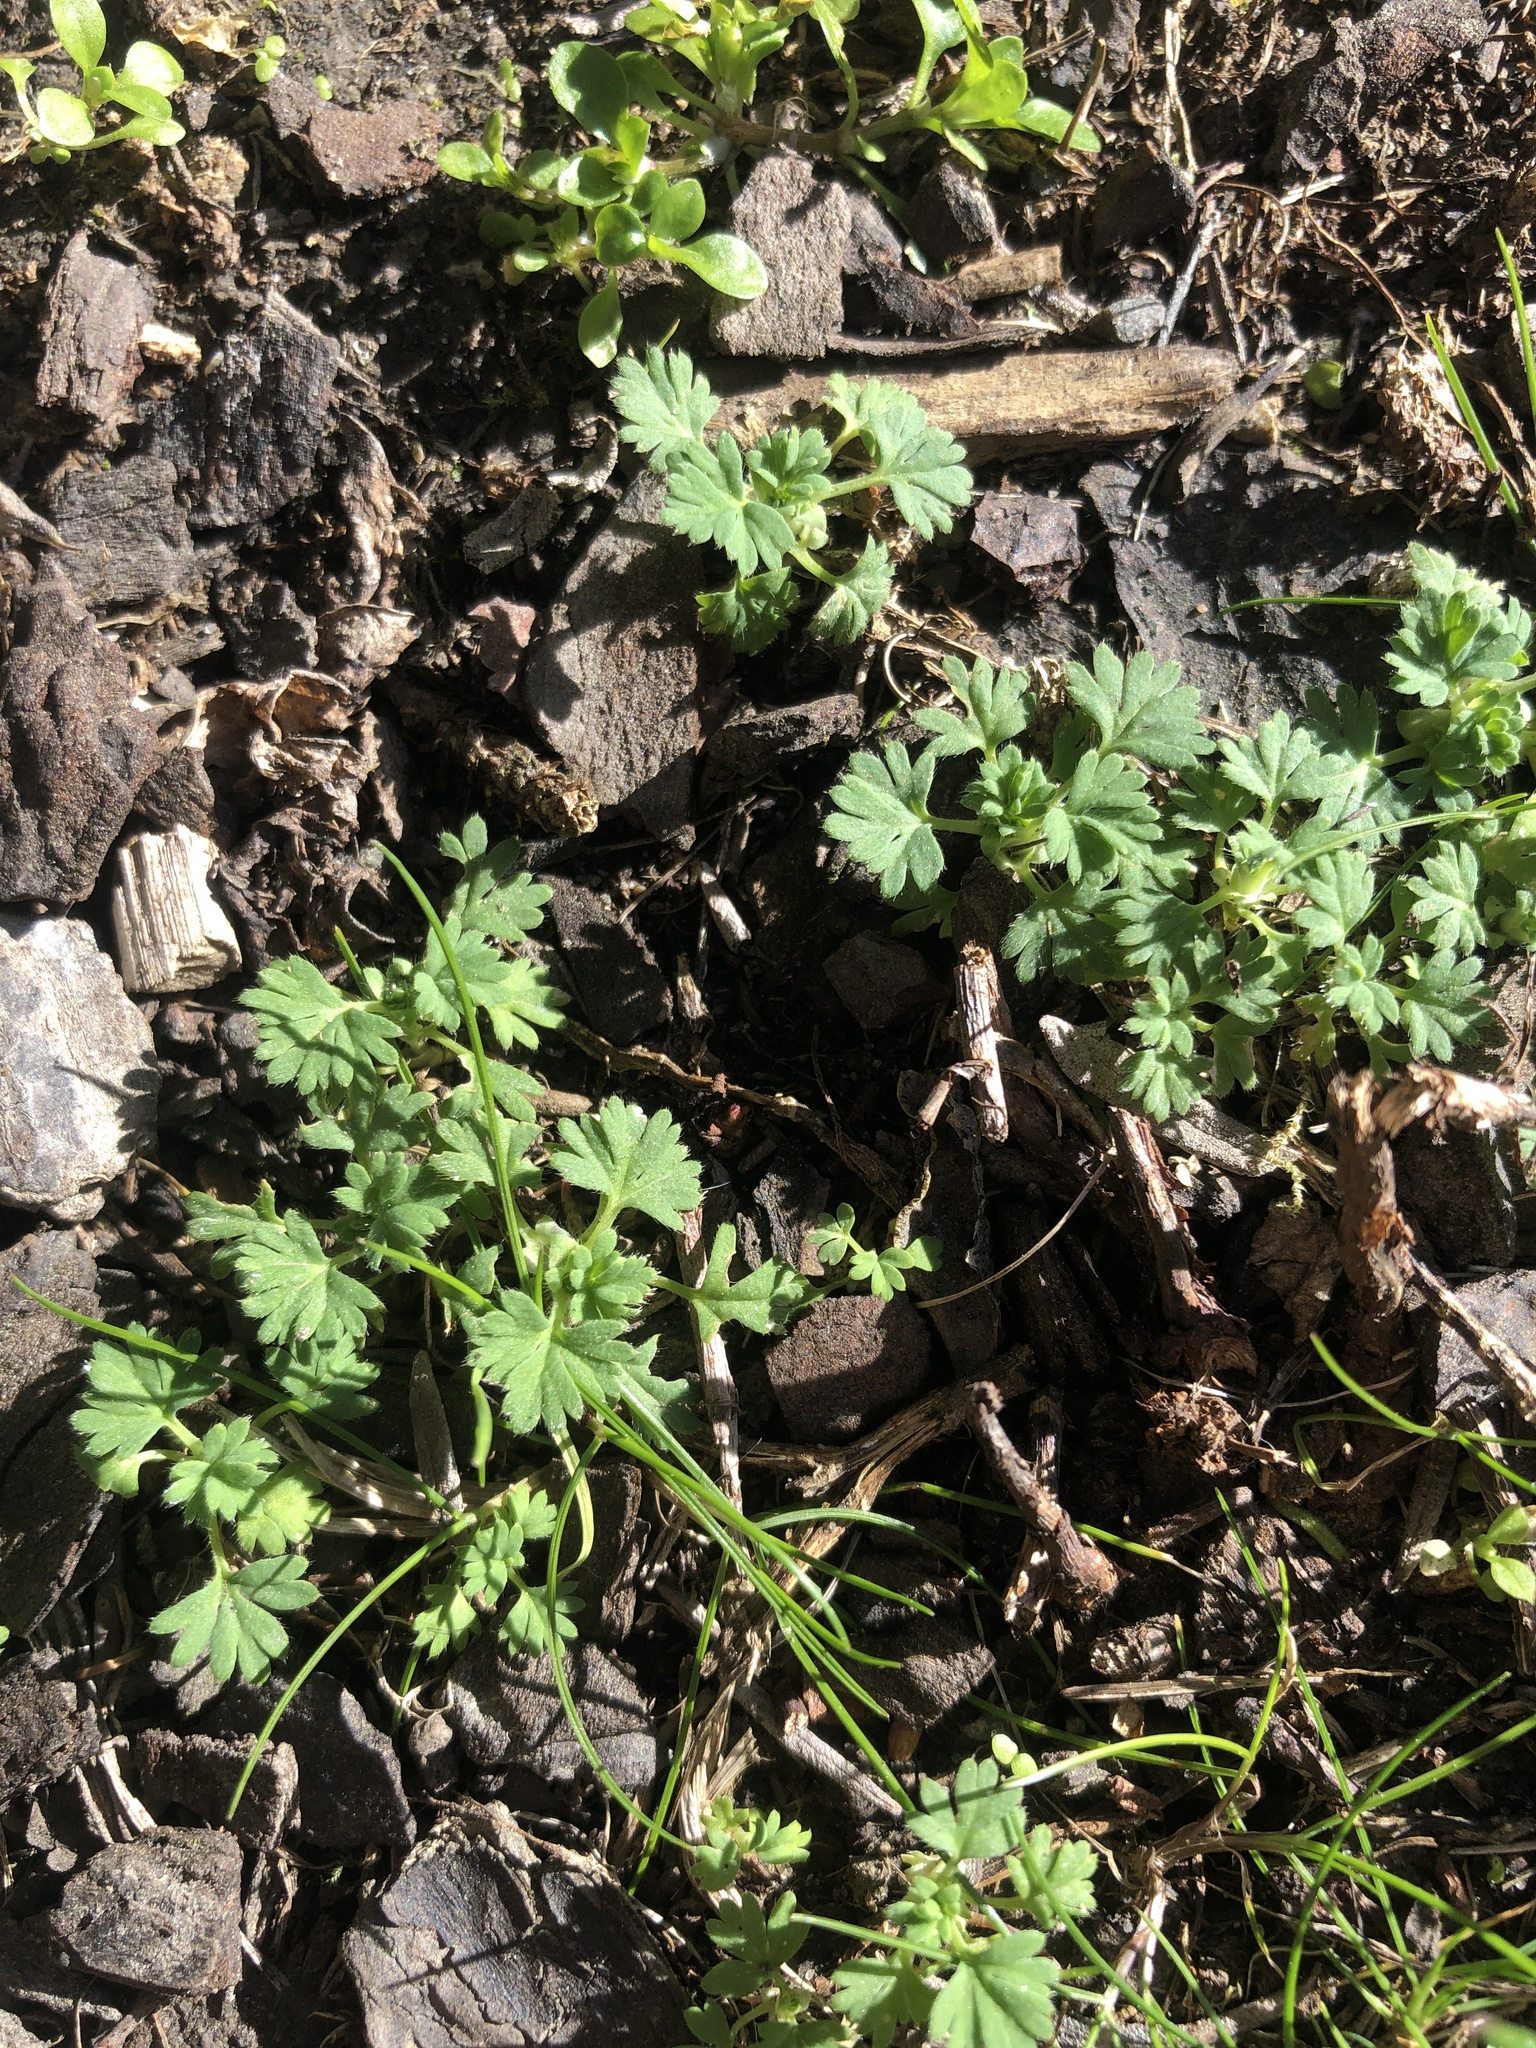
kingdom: Plantae
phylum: Tracheophyta
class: Magnoliopsida
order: Rosales
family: Rosaceae
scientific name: Rosaceae
